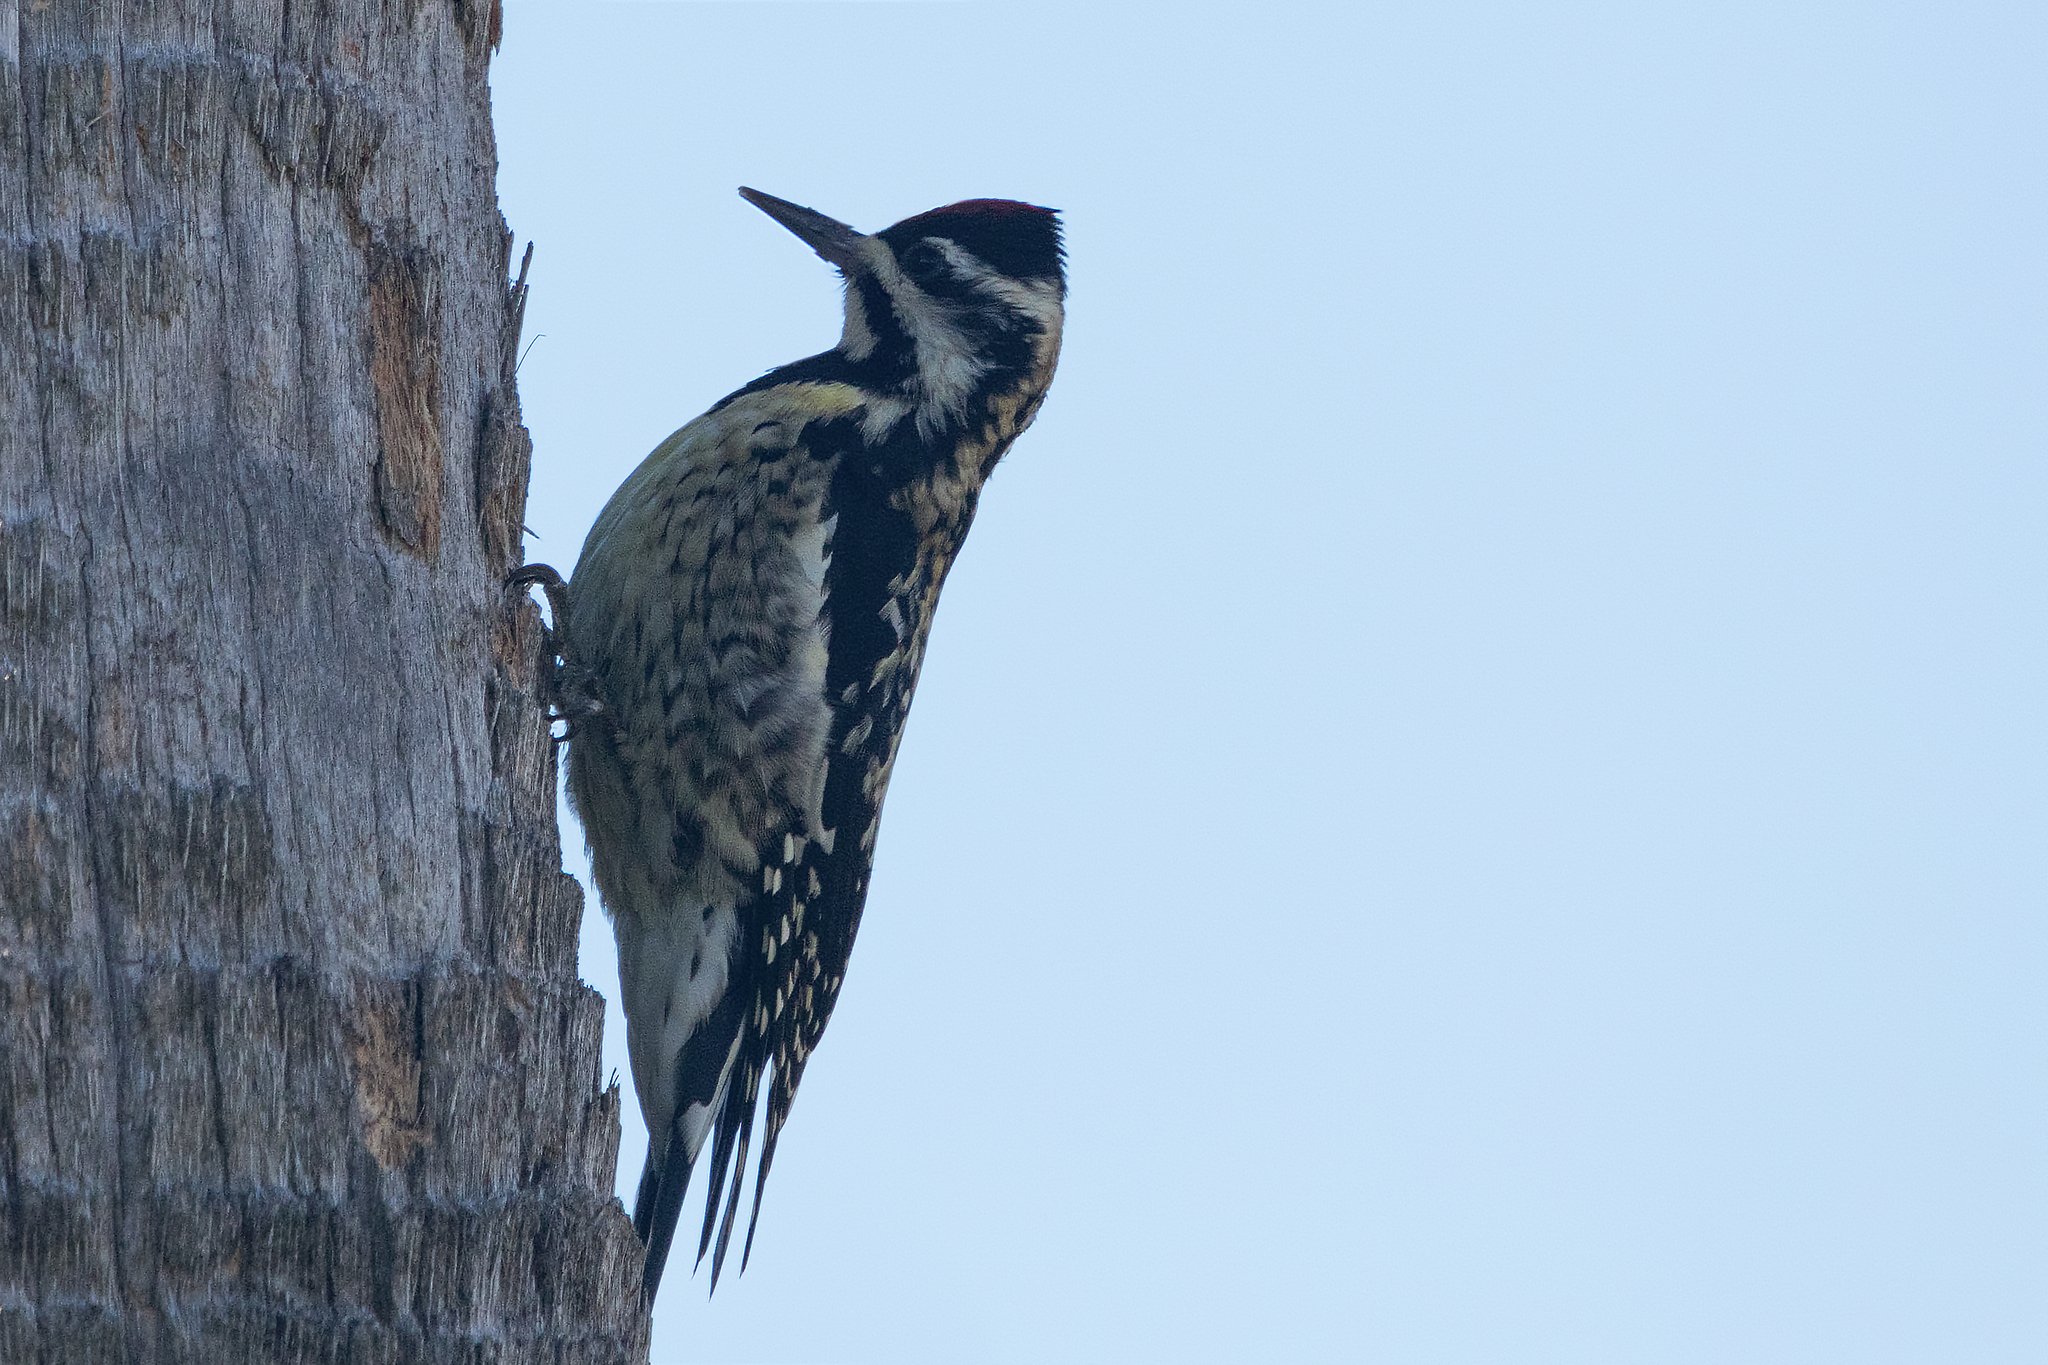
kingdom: Animalia
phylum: Chordata
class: Aves
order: Piciformes
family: Picidae
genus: Sphyrapicus
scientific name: Sphyrapicus varius
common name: Yellow-bellied sapsucker
